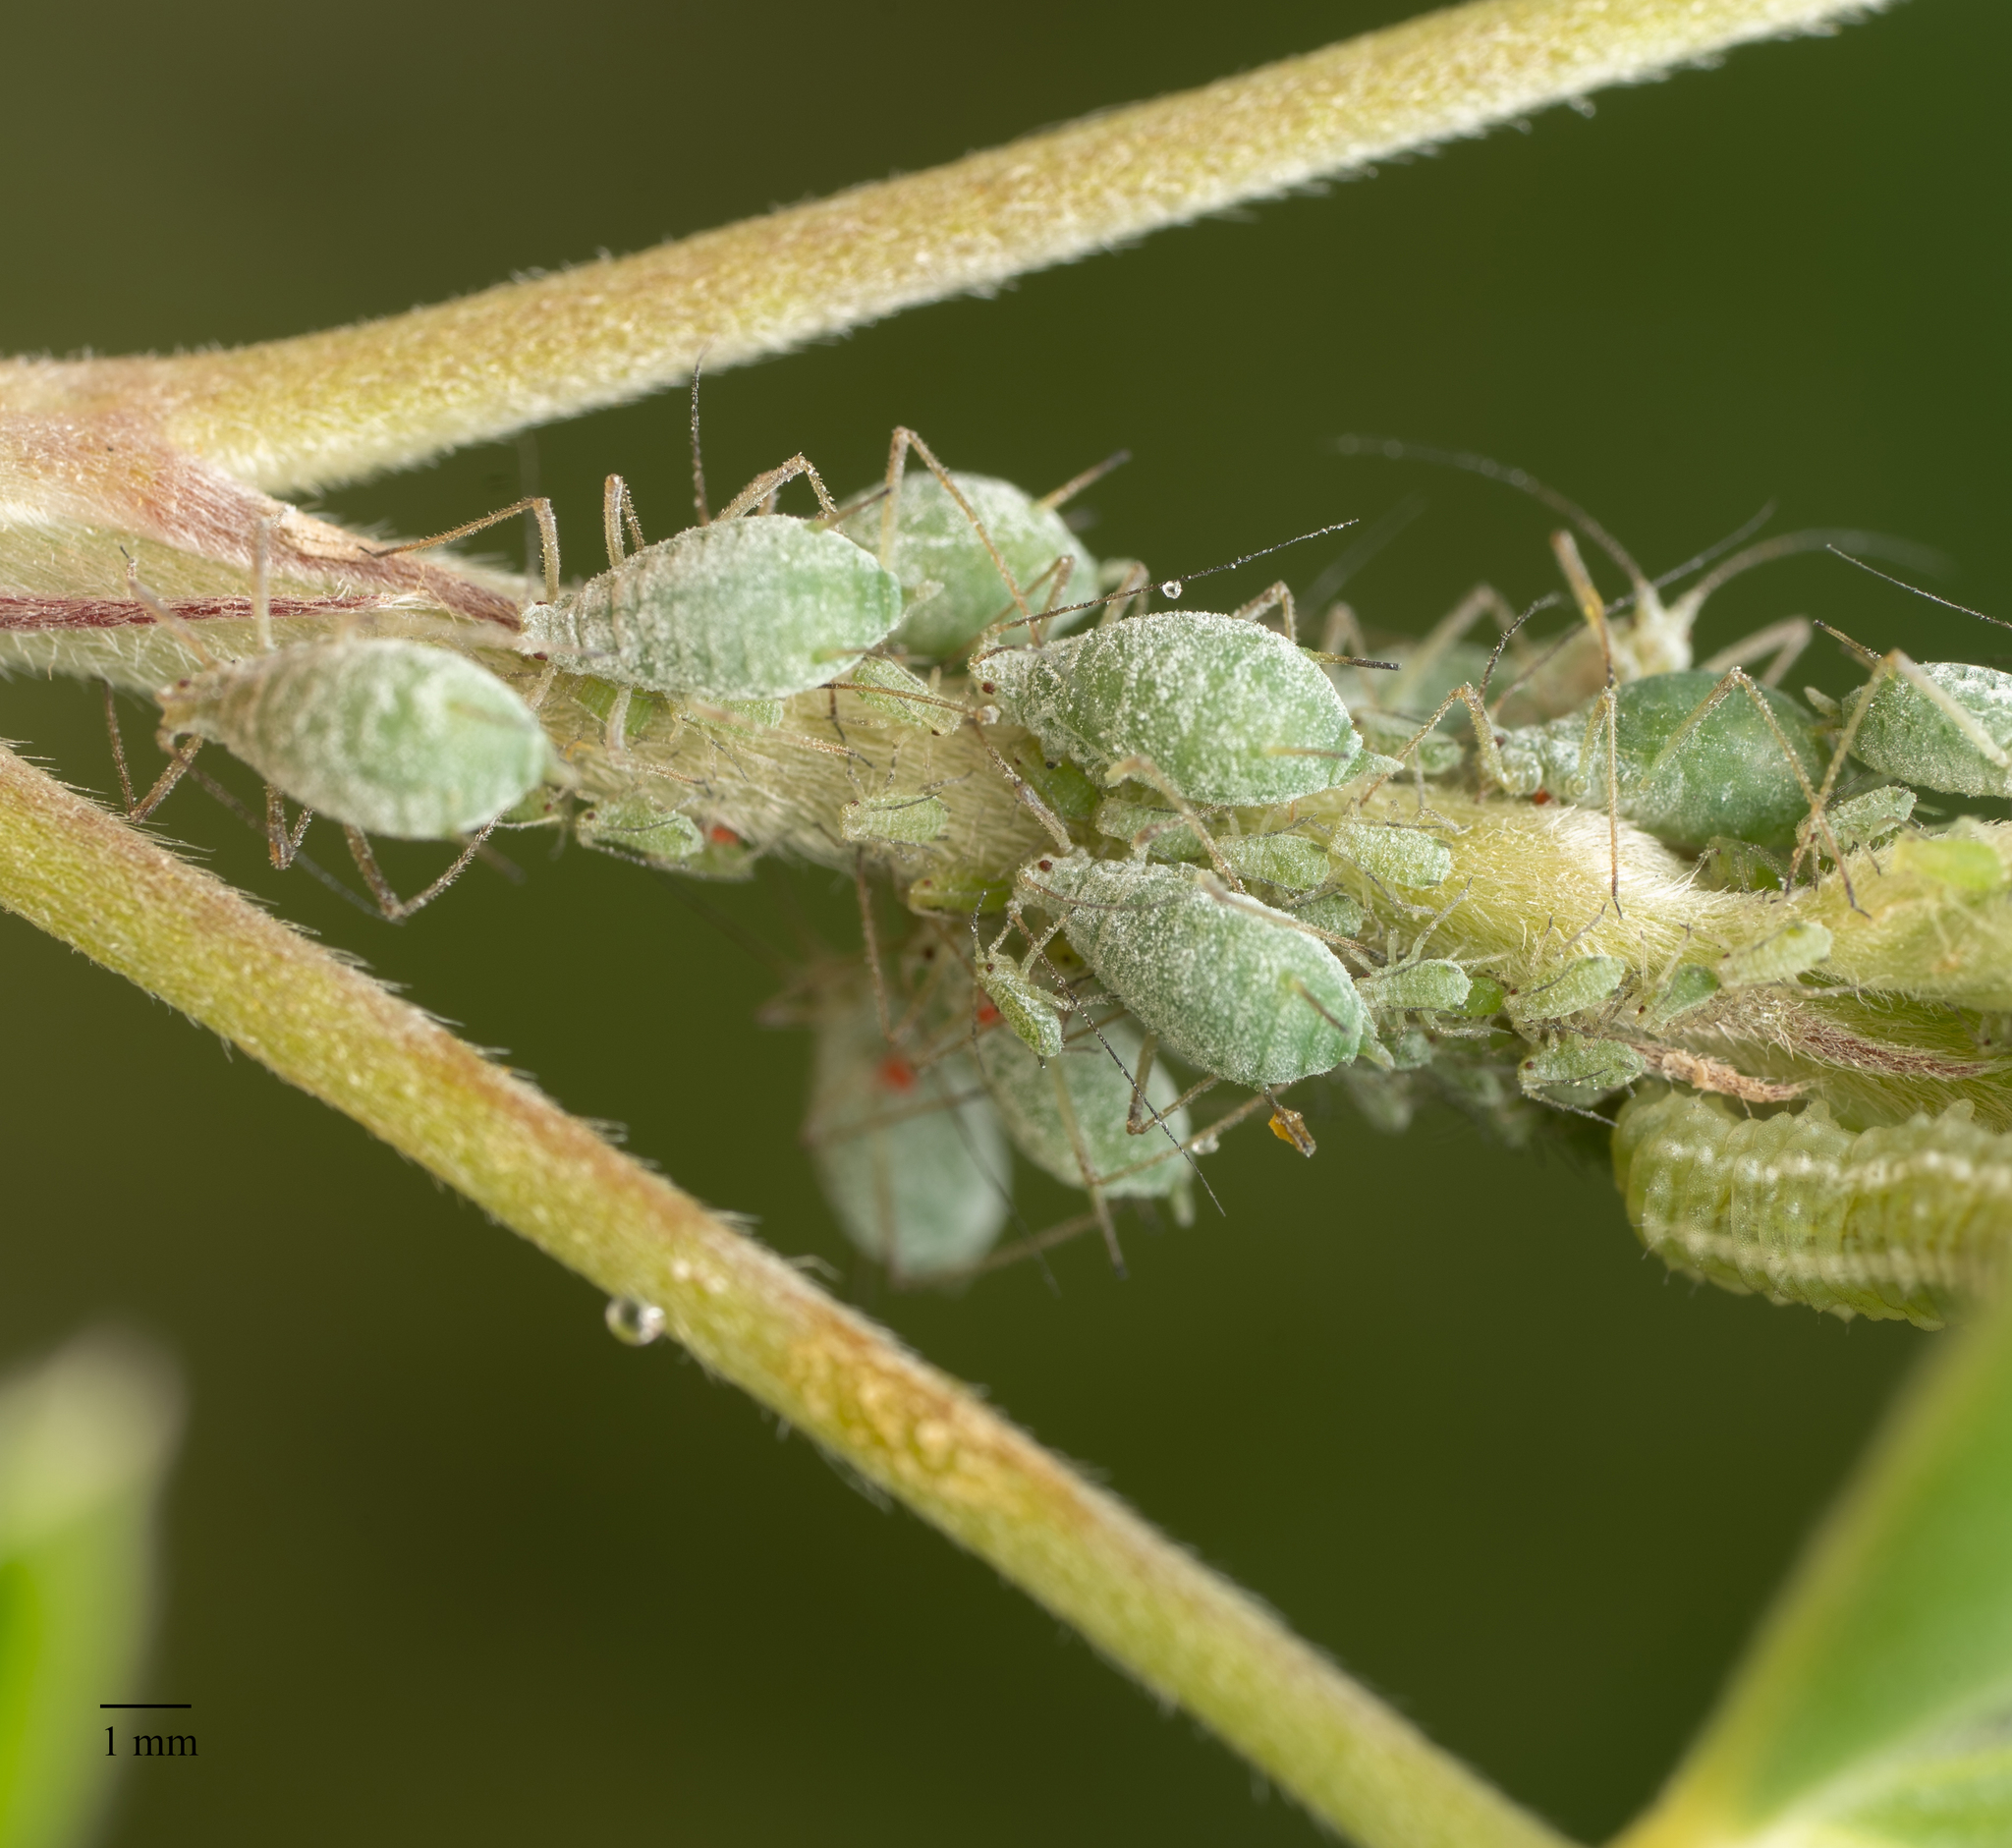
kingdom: Animalia
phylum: Arthropoda
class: Insecta
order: Hemiptera
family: Aphididae
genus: Macrosiphum
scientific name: Macrosiphum albifrons
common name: Lupine aphid
